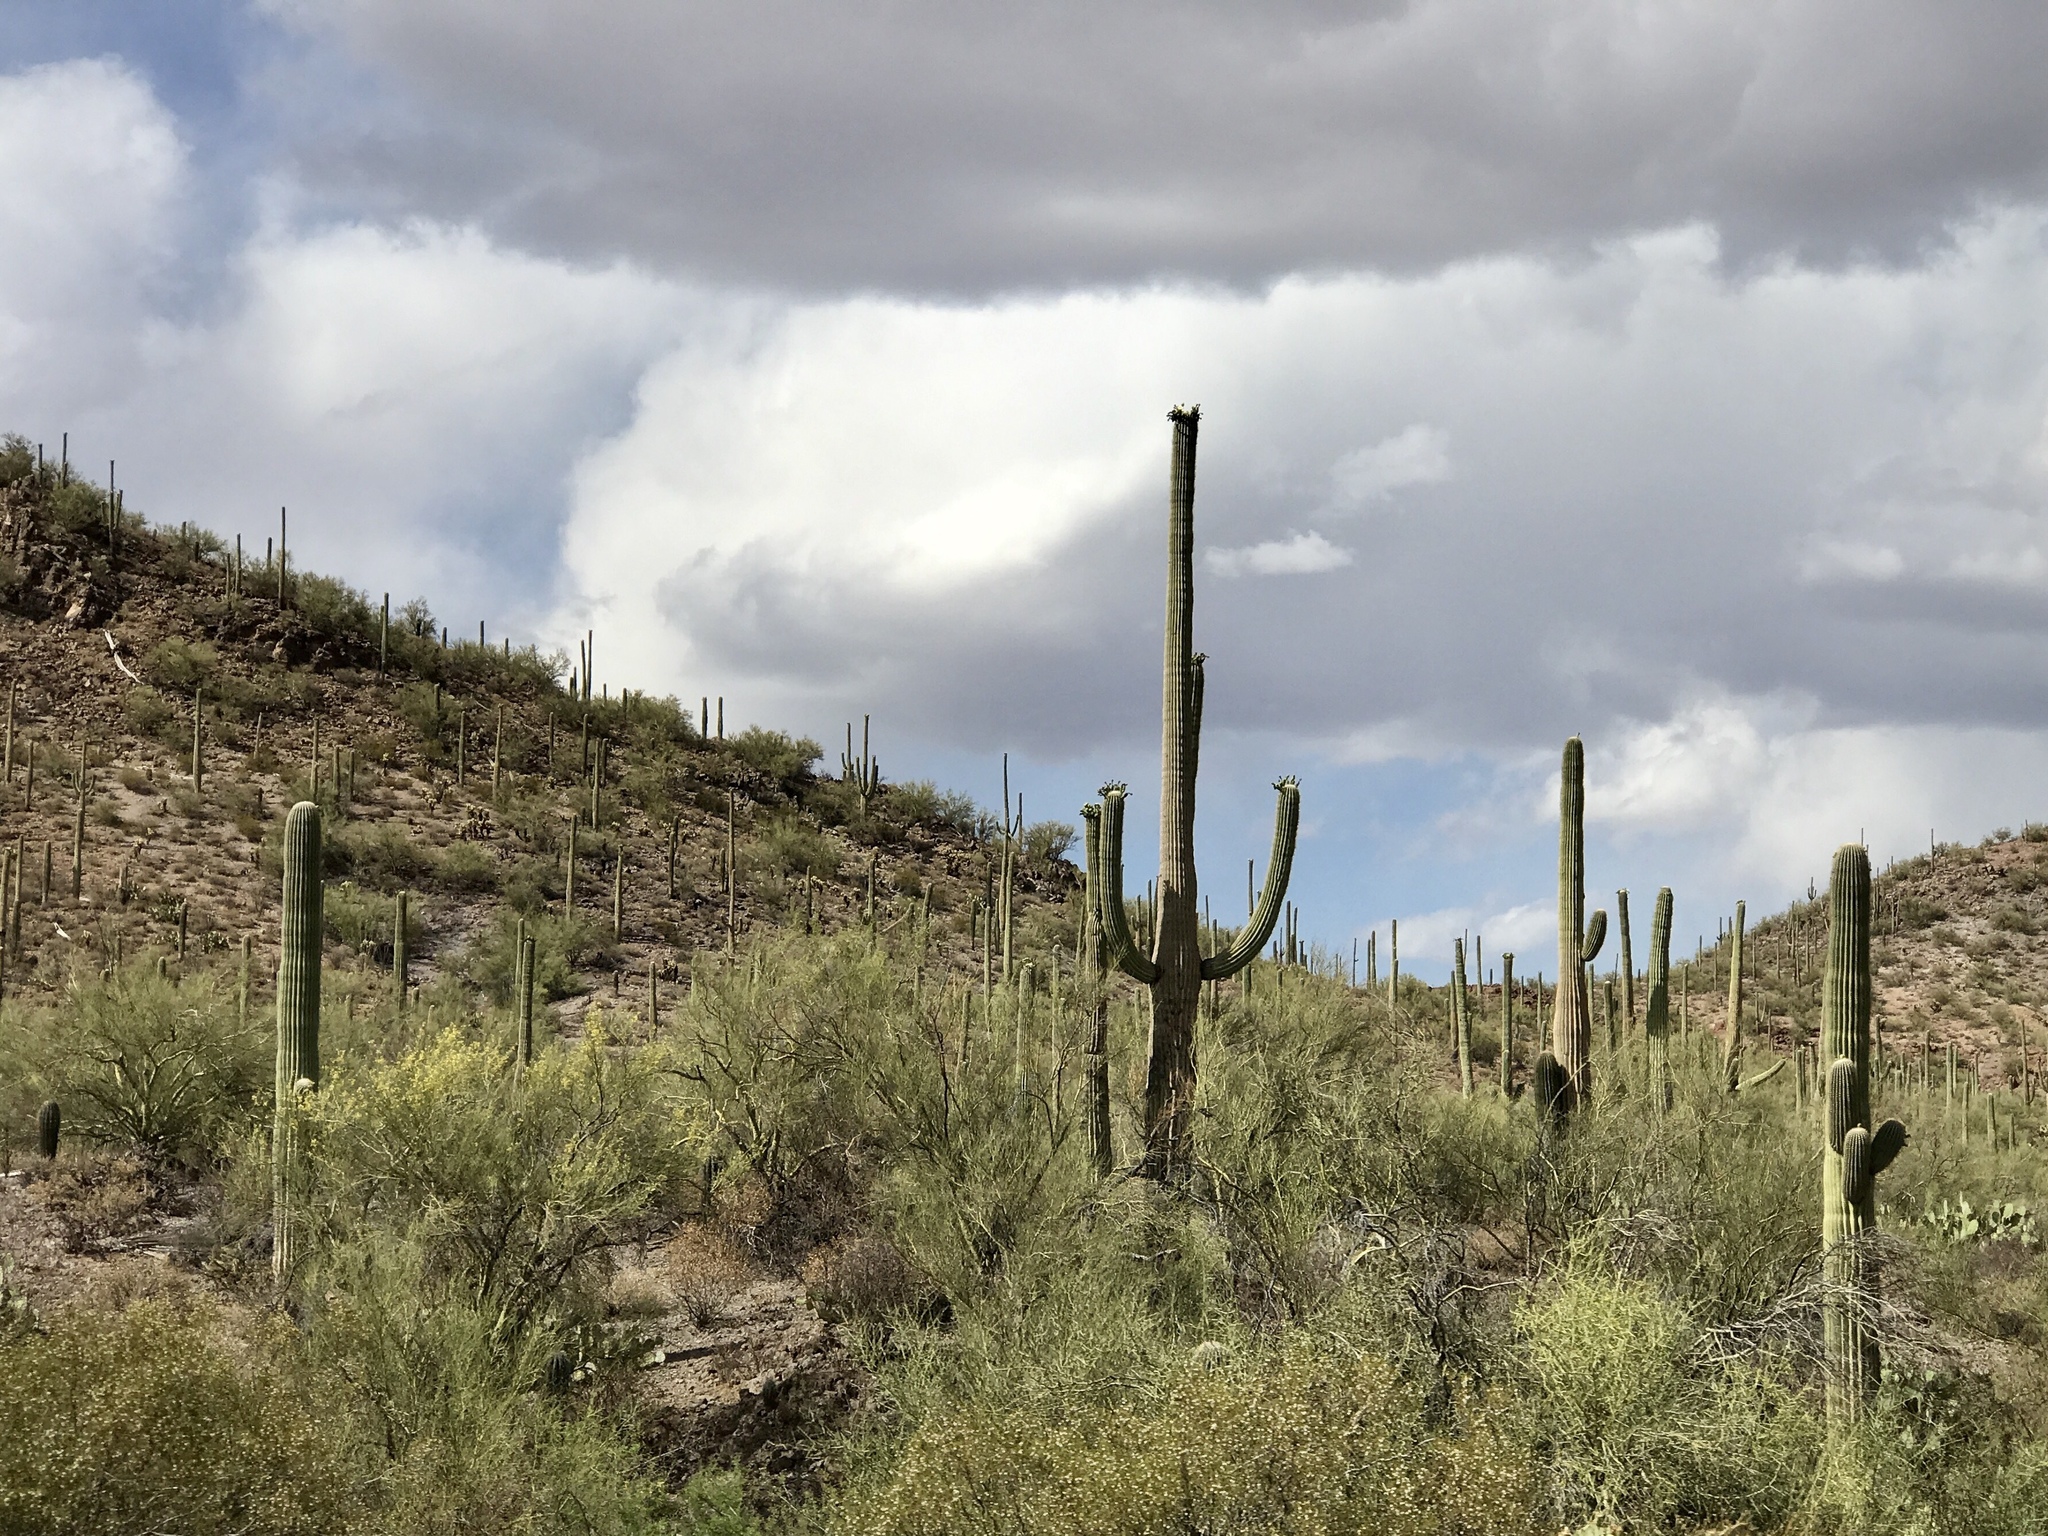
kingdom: Plantae
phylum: Tracheophyta
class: Magnoliopsida
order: Caryophyllales
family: Cactaceae
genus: Carnegiea
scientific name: Carnegiea gigantea
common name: Saguaro
